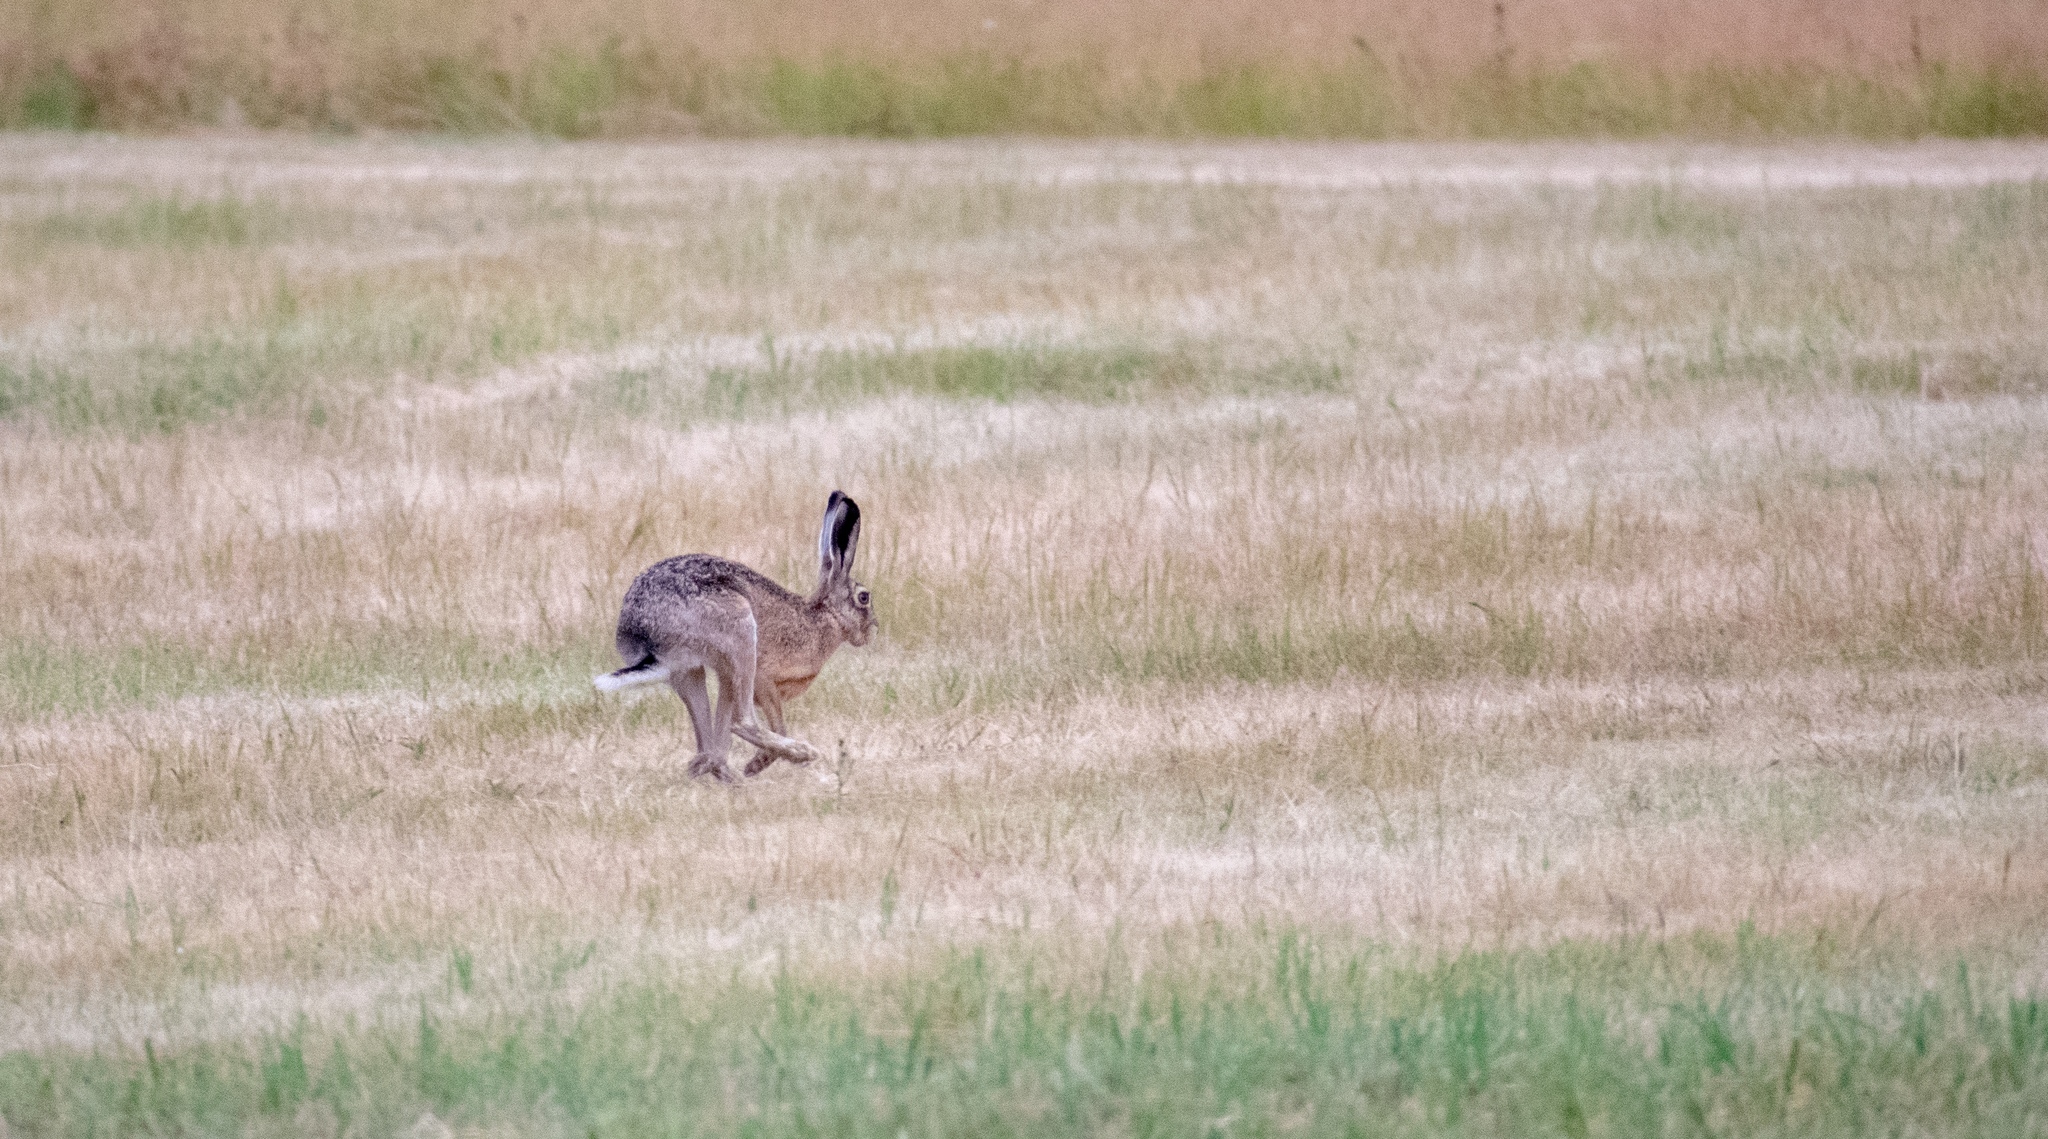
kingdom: Animalia
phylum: Chordata
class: Mammalia
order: Lagomorpha
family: Leporidae
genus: Lepus
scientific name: Lepus europaeus
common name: European hare
